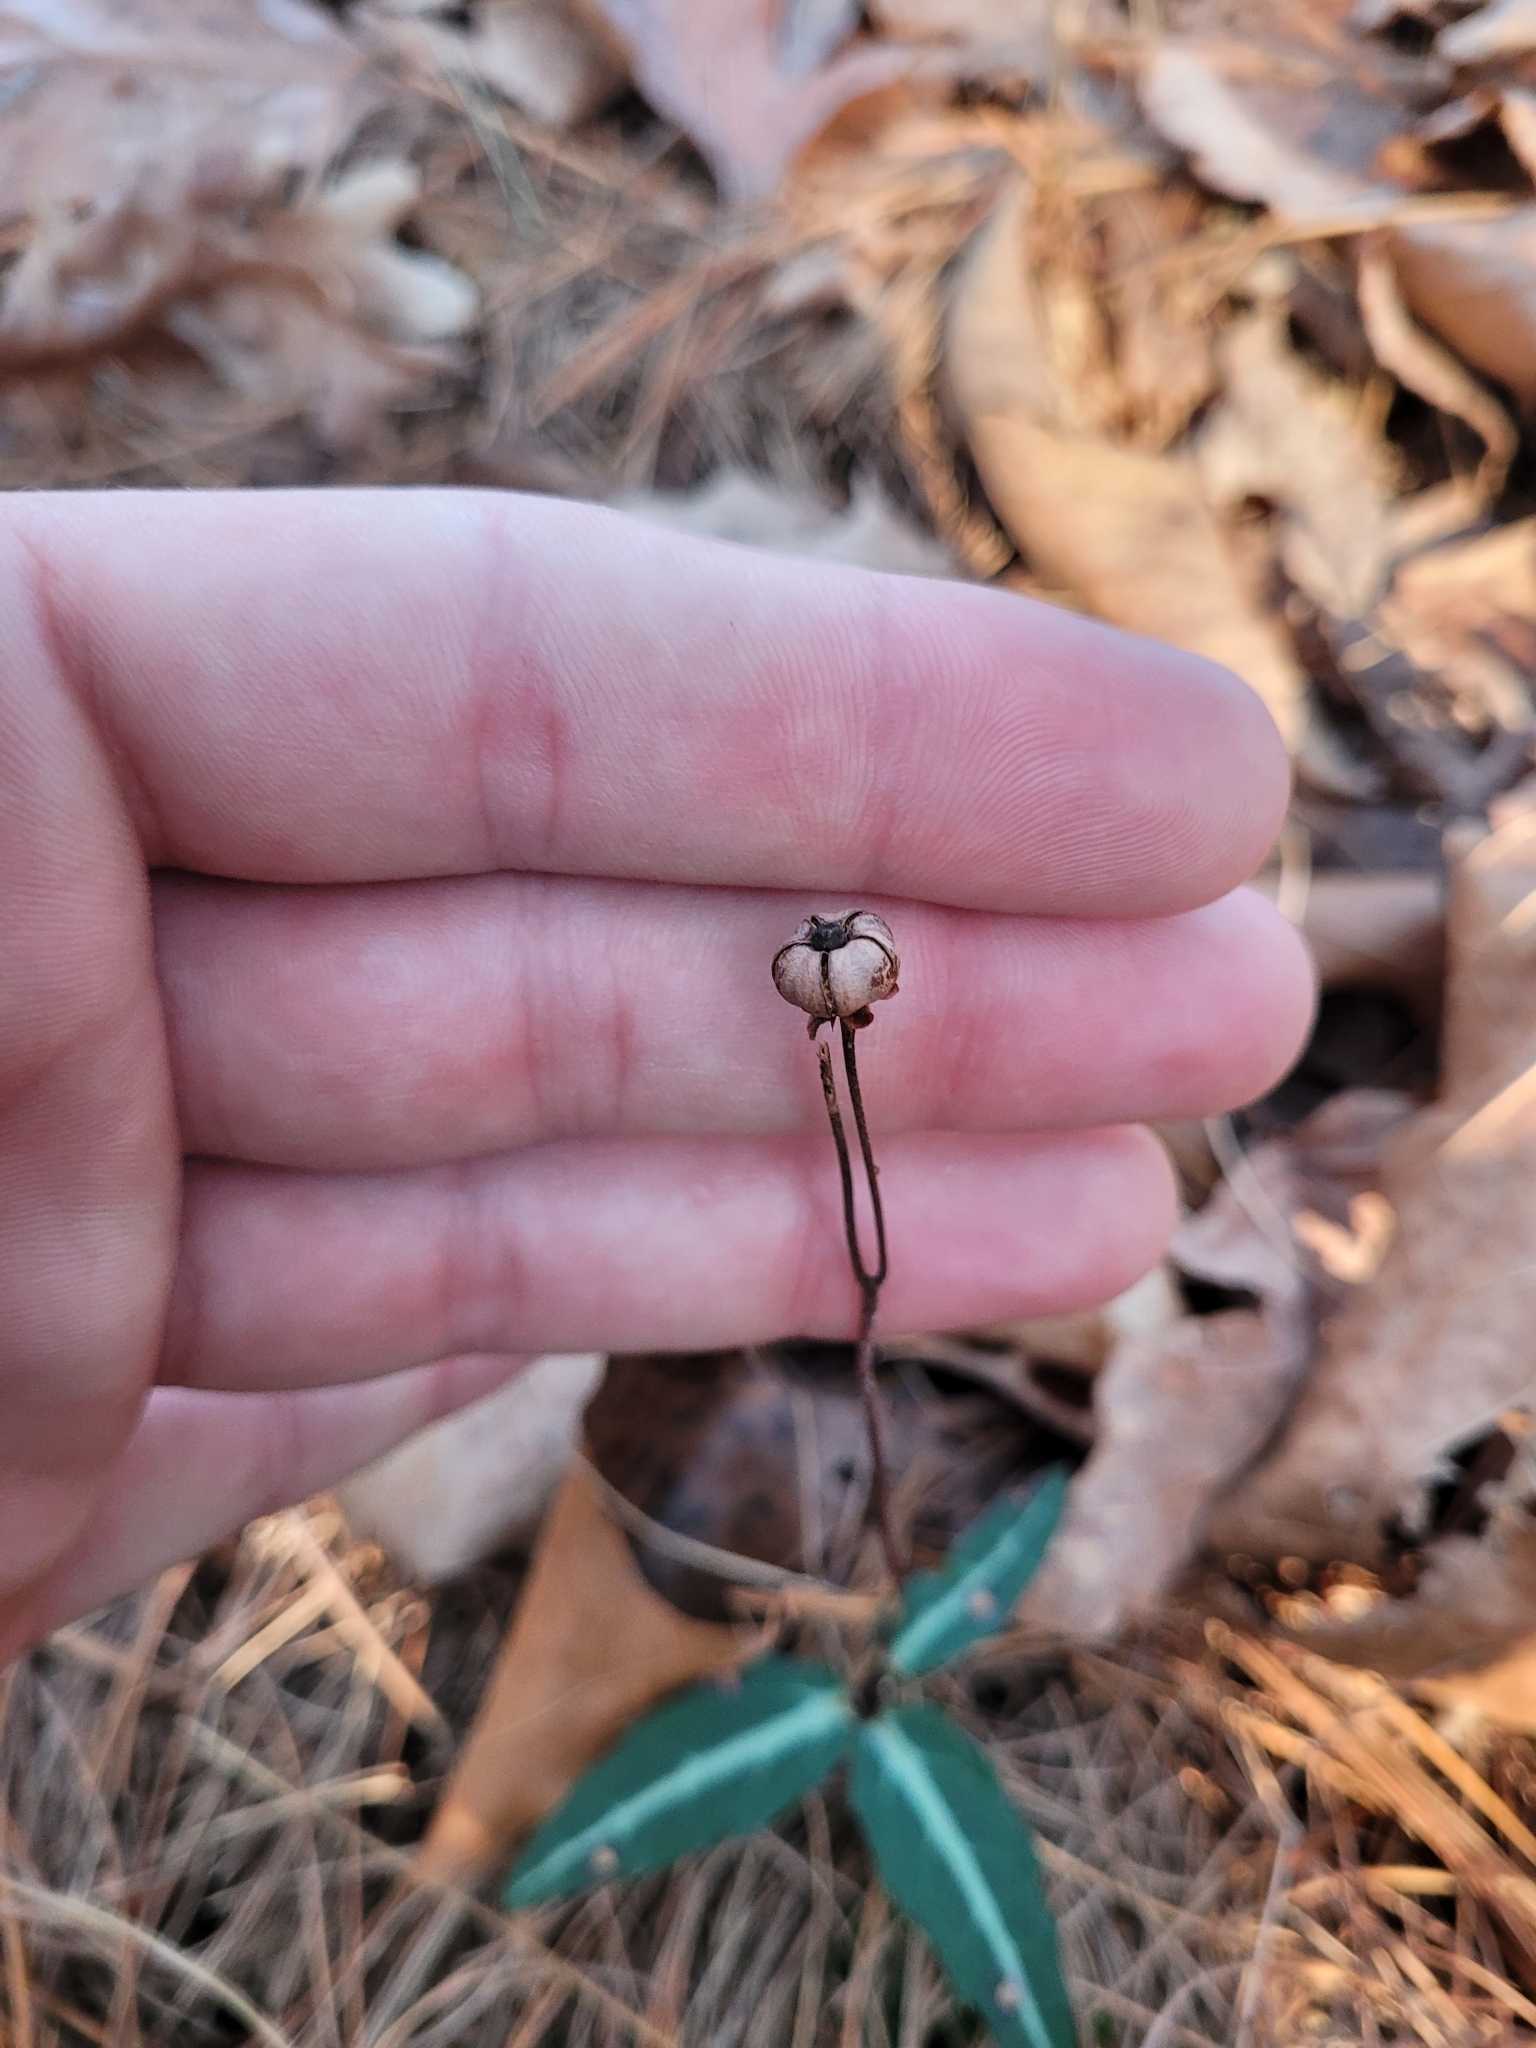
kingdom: Plantae
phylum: Tracheophyta
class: Magnoliopsida
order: Ericales
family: Ericaceae
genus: Chimaphila
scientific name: Chimaphila maculata
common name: Spotted pipsissewa
